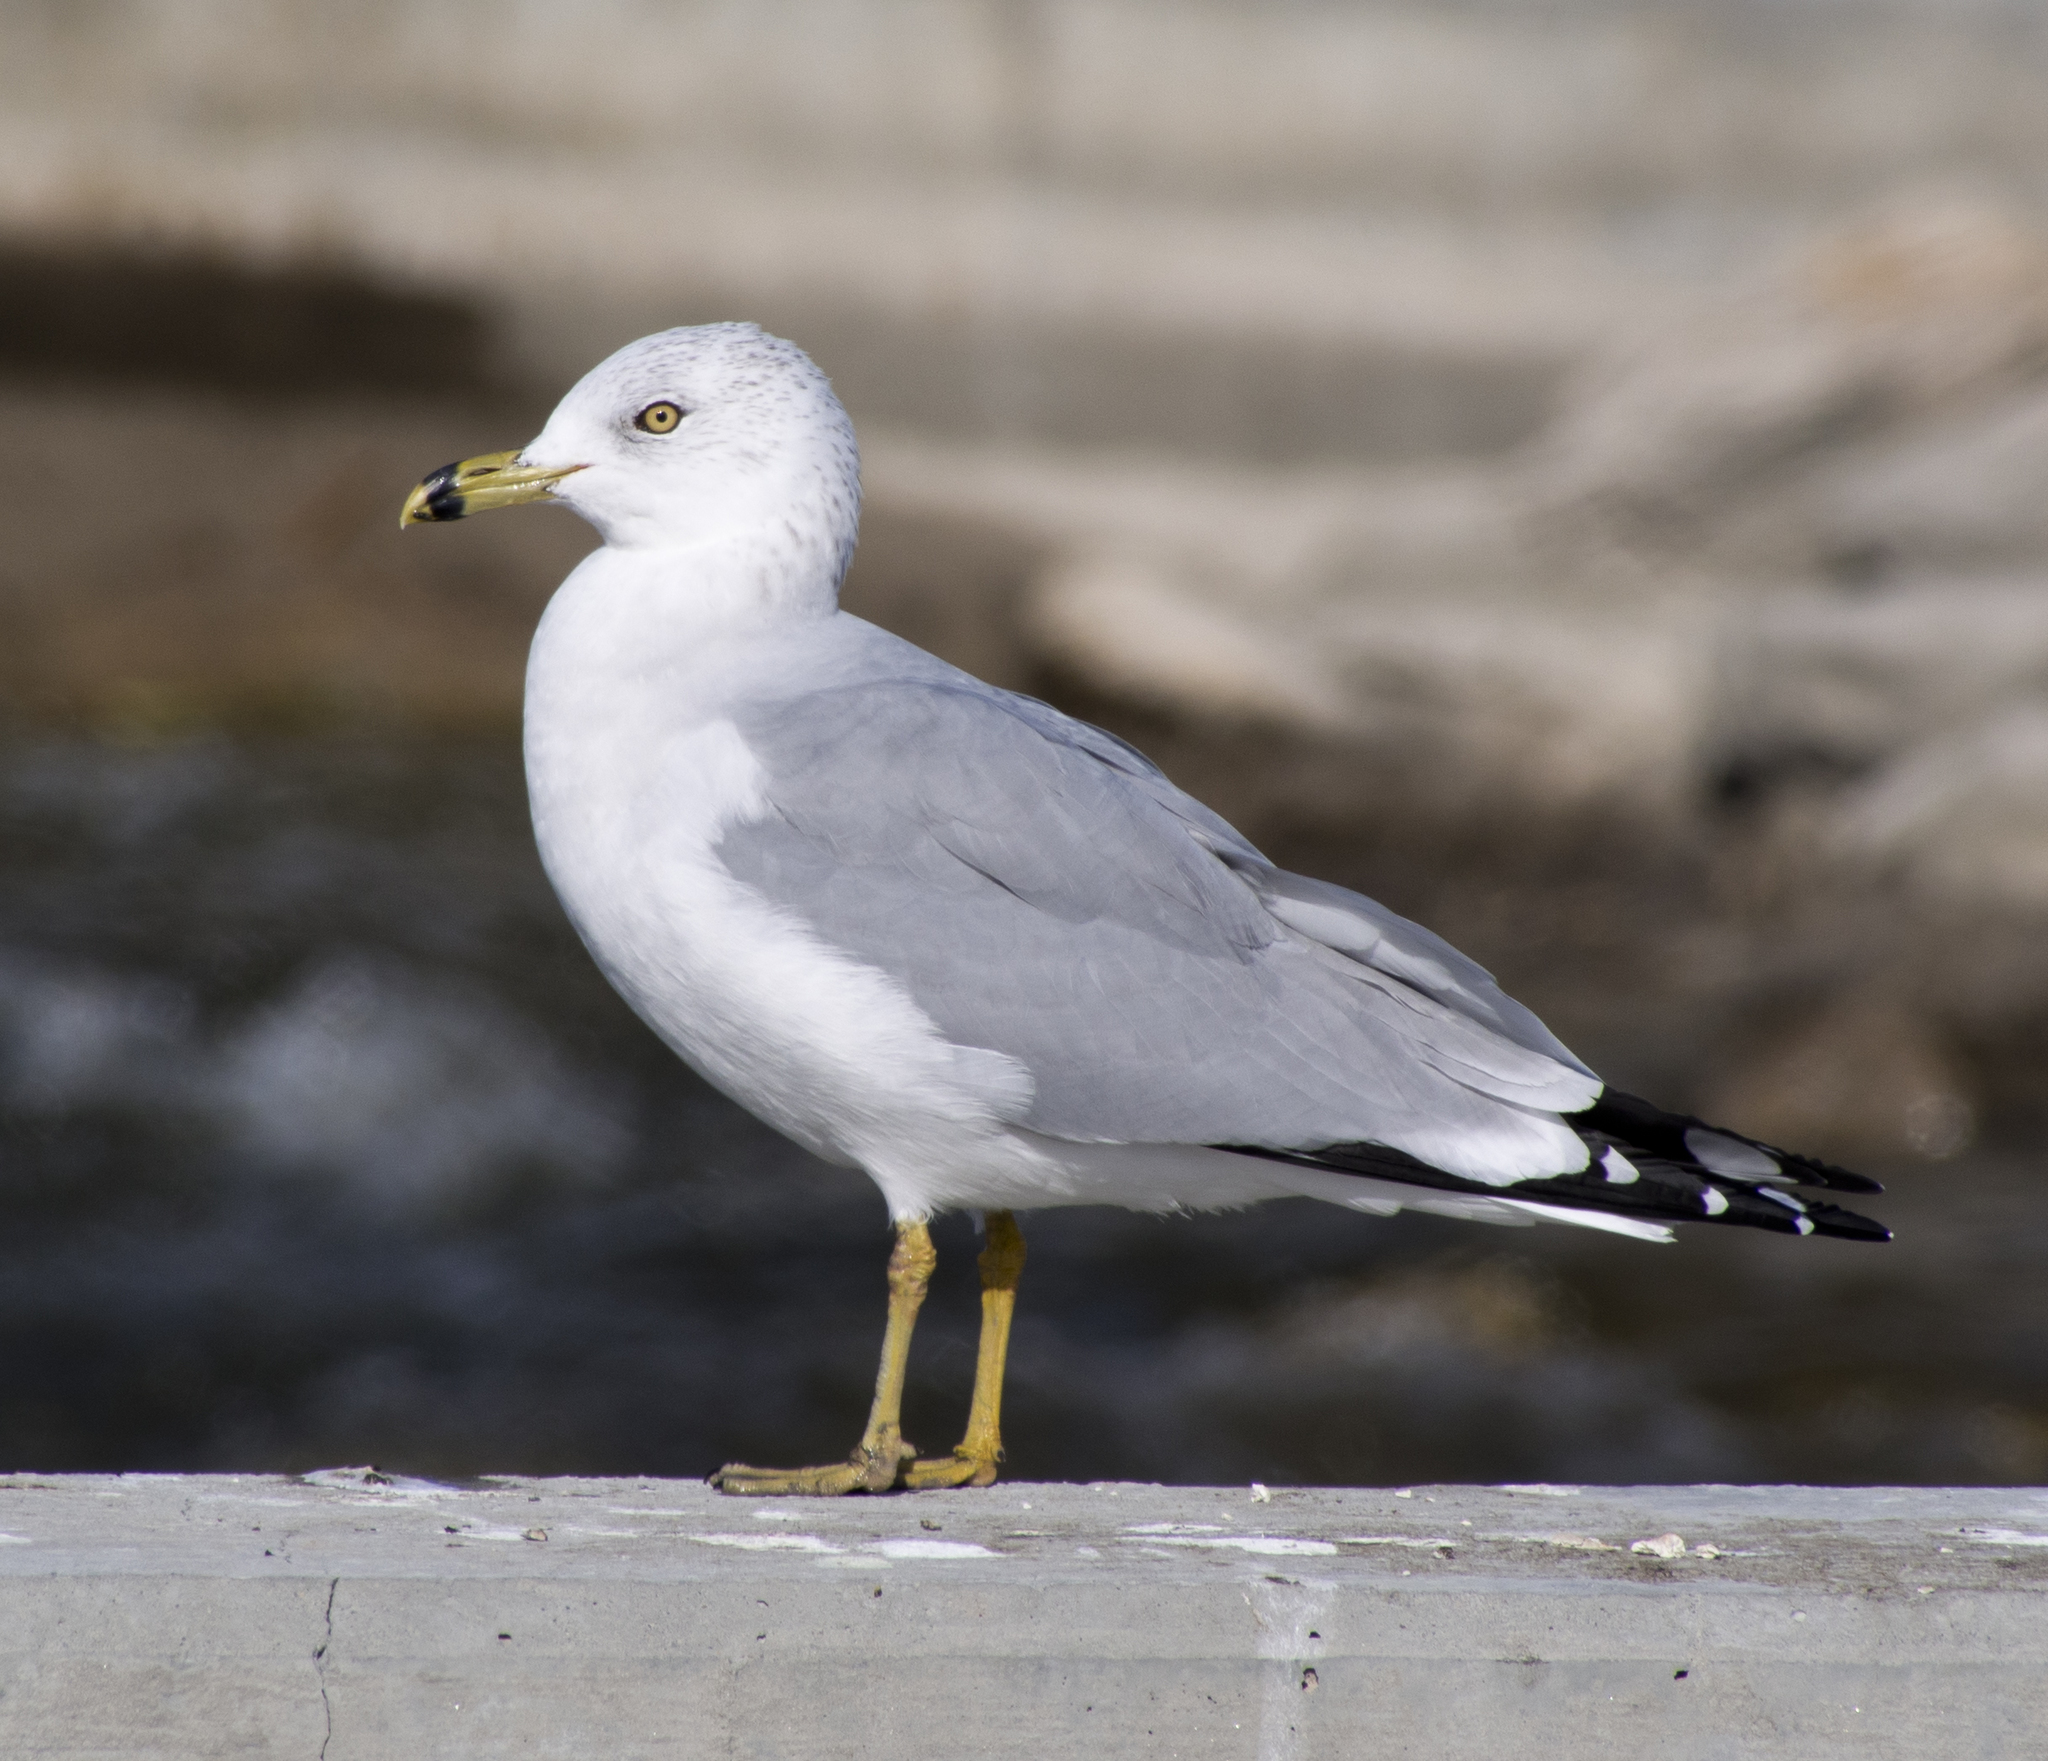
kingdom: Animalia
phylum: Chordata
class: Aves
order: Charadriiformes
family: Laridae
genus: Larus
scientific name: Larus delawarensis
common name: Ring-billed gull
